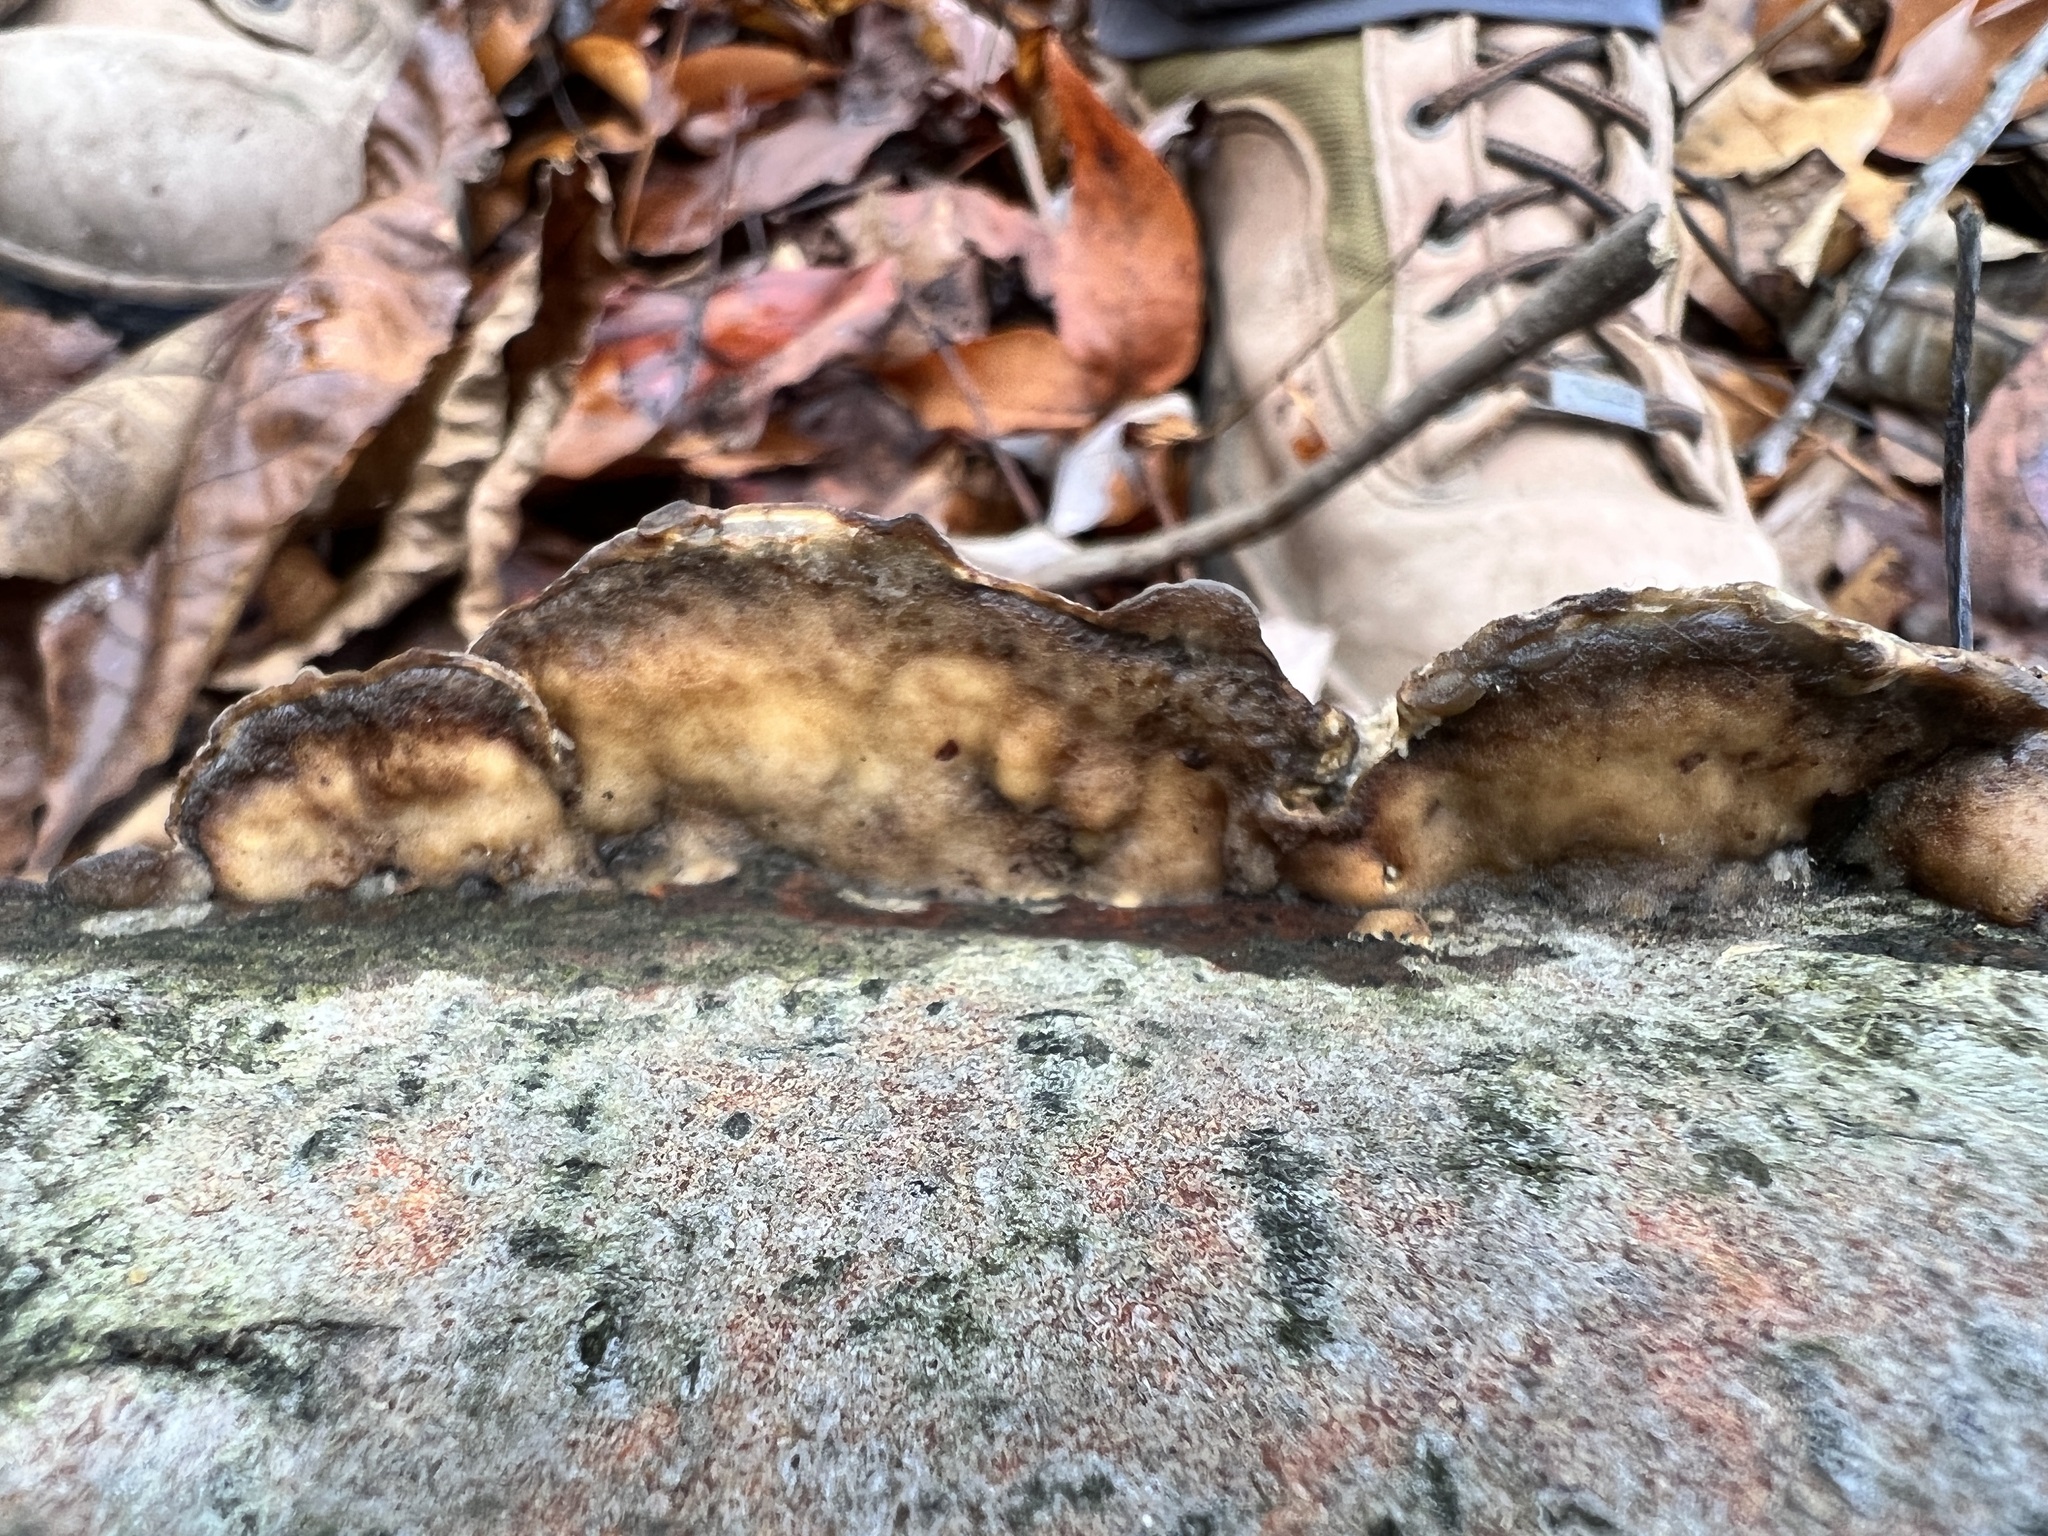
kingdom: Fungi
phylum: Basidiomycota
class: Agaricomycetes
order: Polyporales
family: Irpicaceae
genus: Trametopsis
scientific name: Trametopsis cervina
